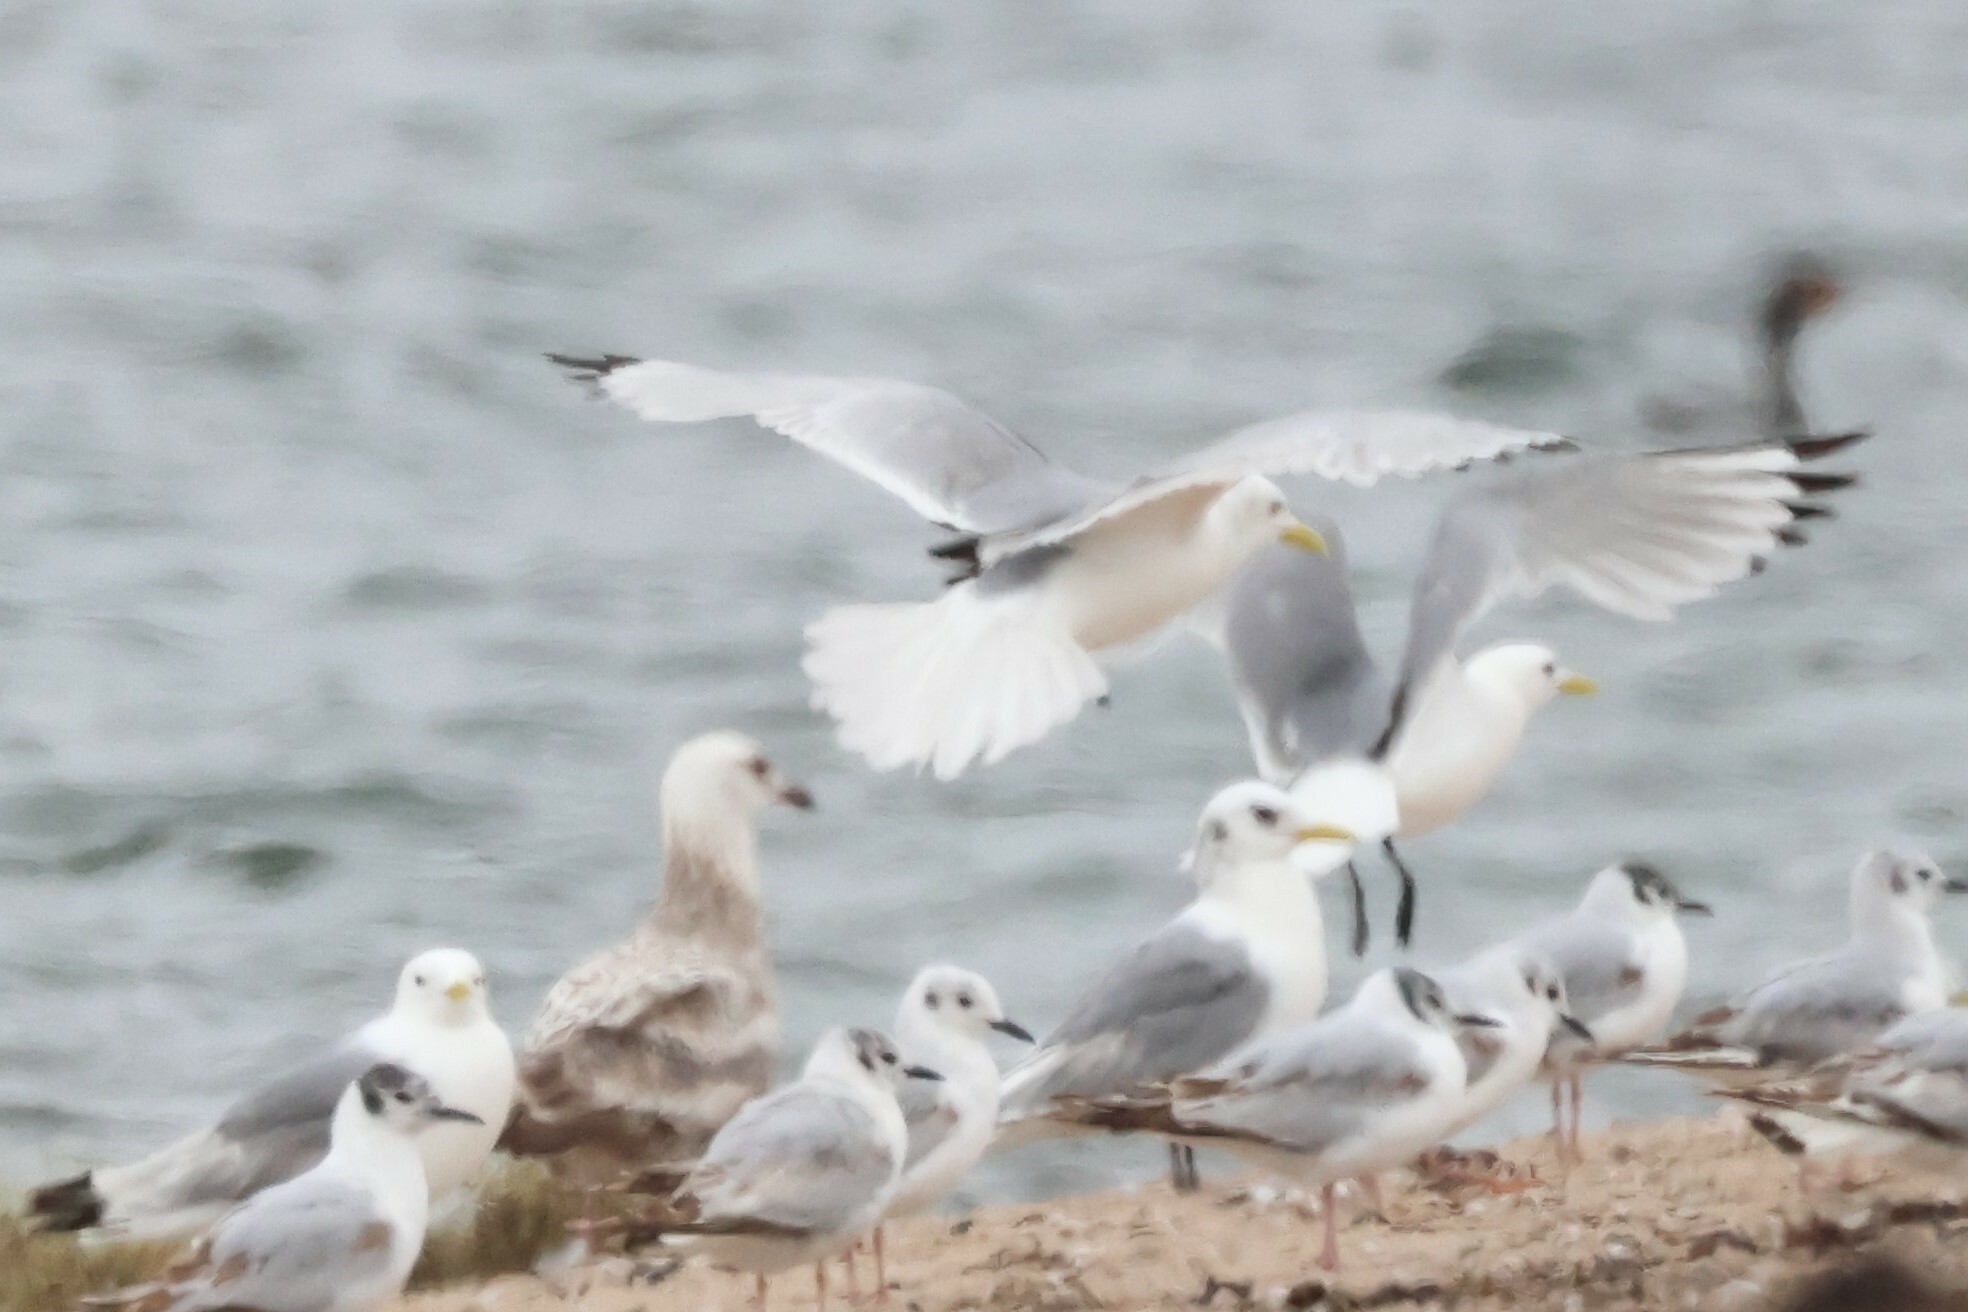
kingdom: Animalia
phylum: Chordata
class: Aves
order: Charadriiformes
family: Laridae
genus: Rissa
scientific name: Rissa tridactyla
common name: Black-legged kittiwake
